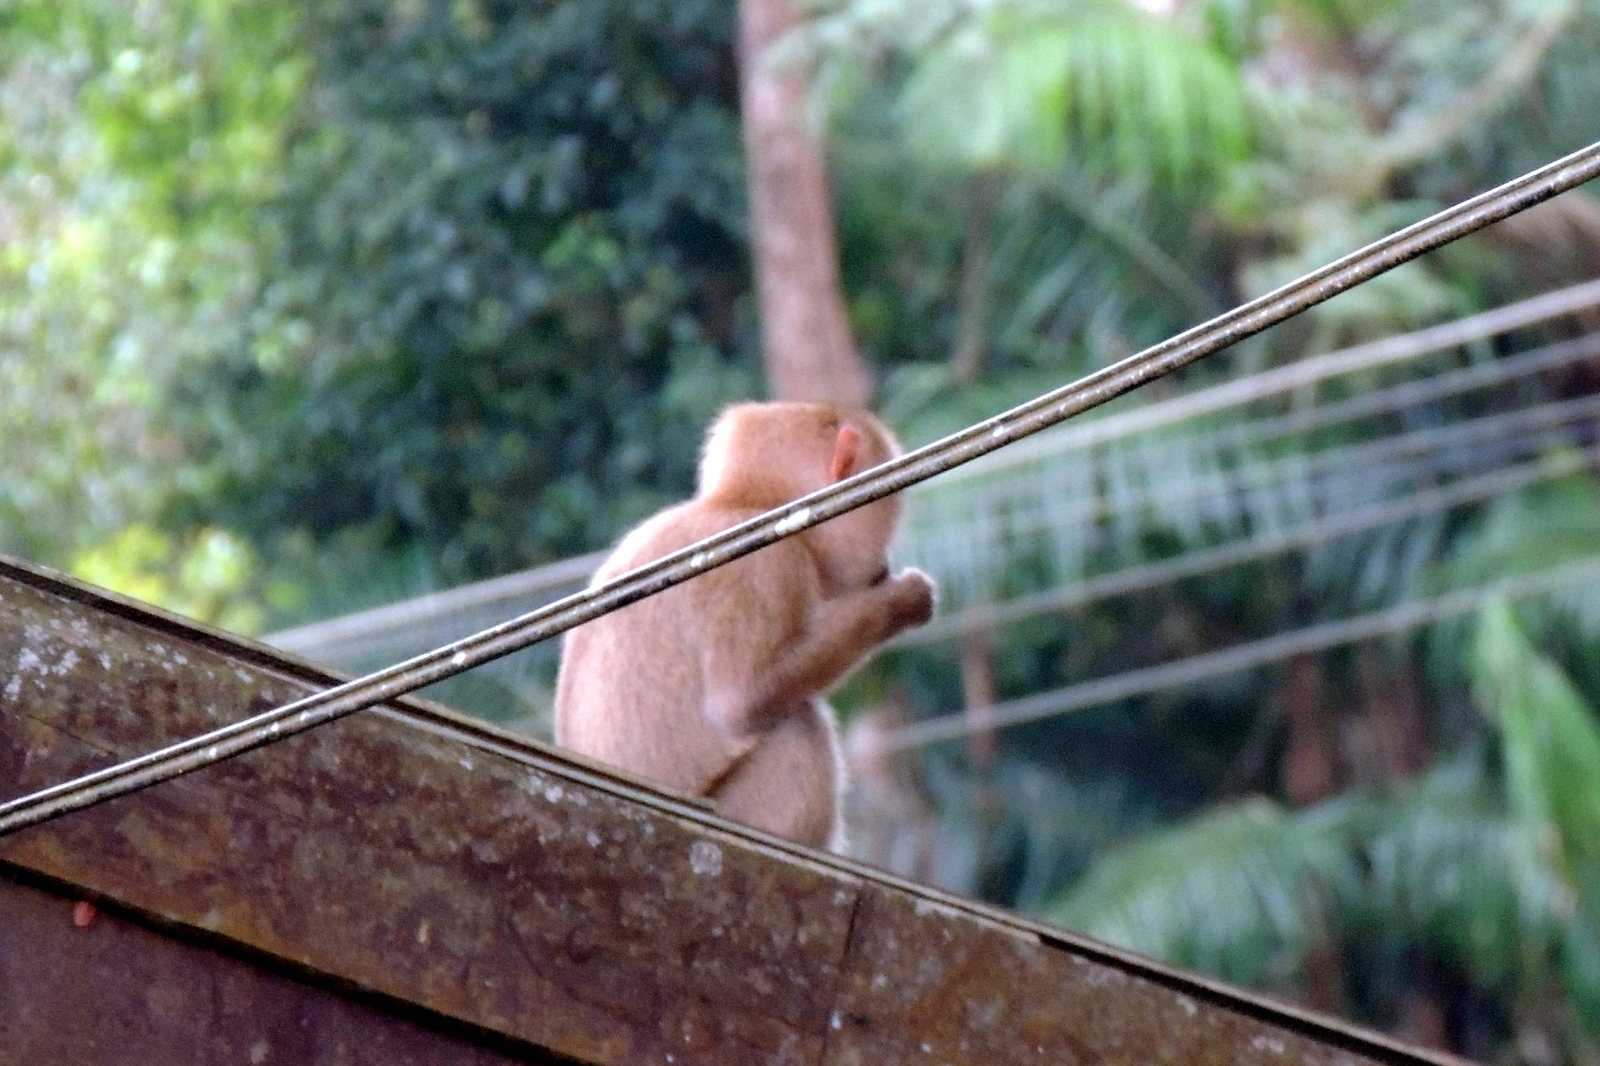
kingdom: Animalia
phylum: Chordata
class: Mammalia
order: Primates
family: Cercopithecidae
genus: Macaca
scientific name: Macaca leonina
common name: Northern pig-tailed macaque
